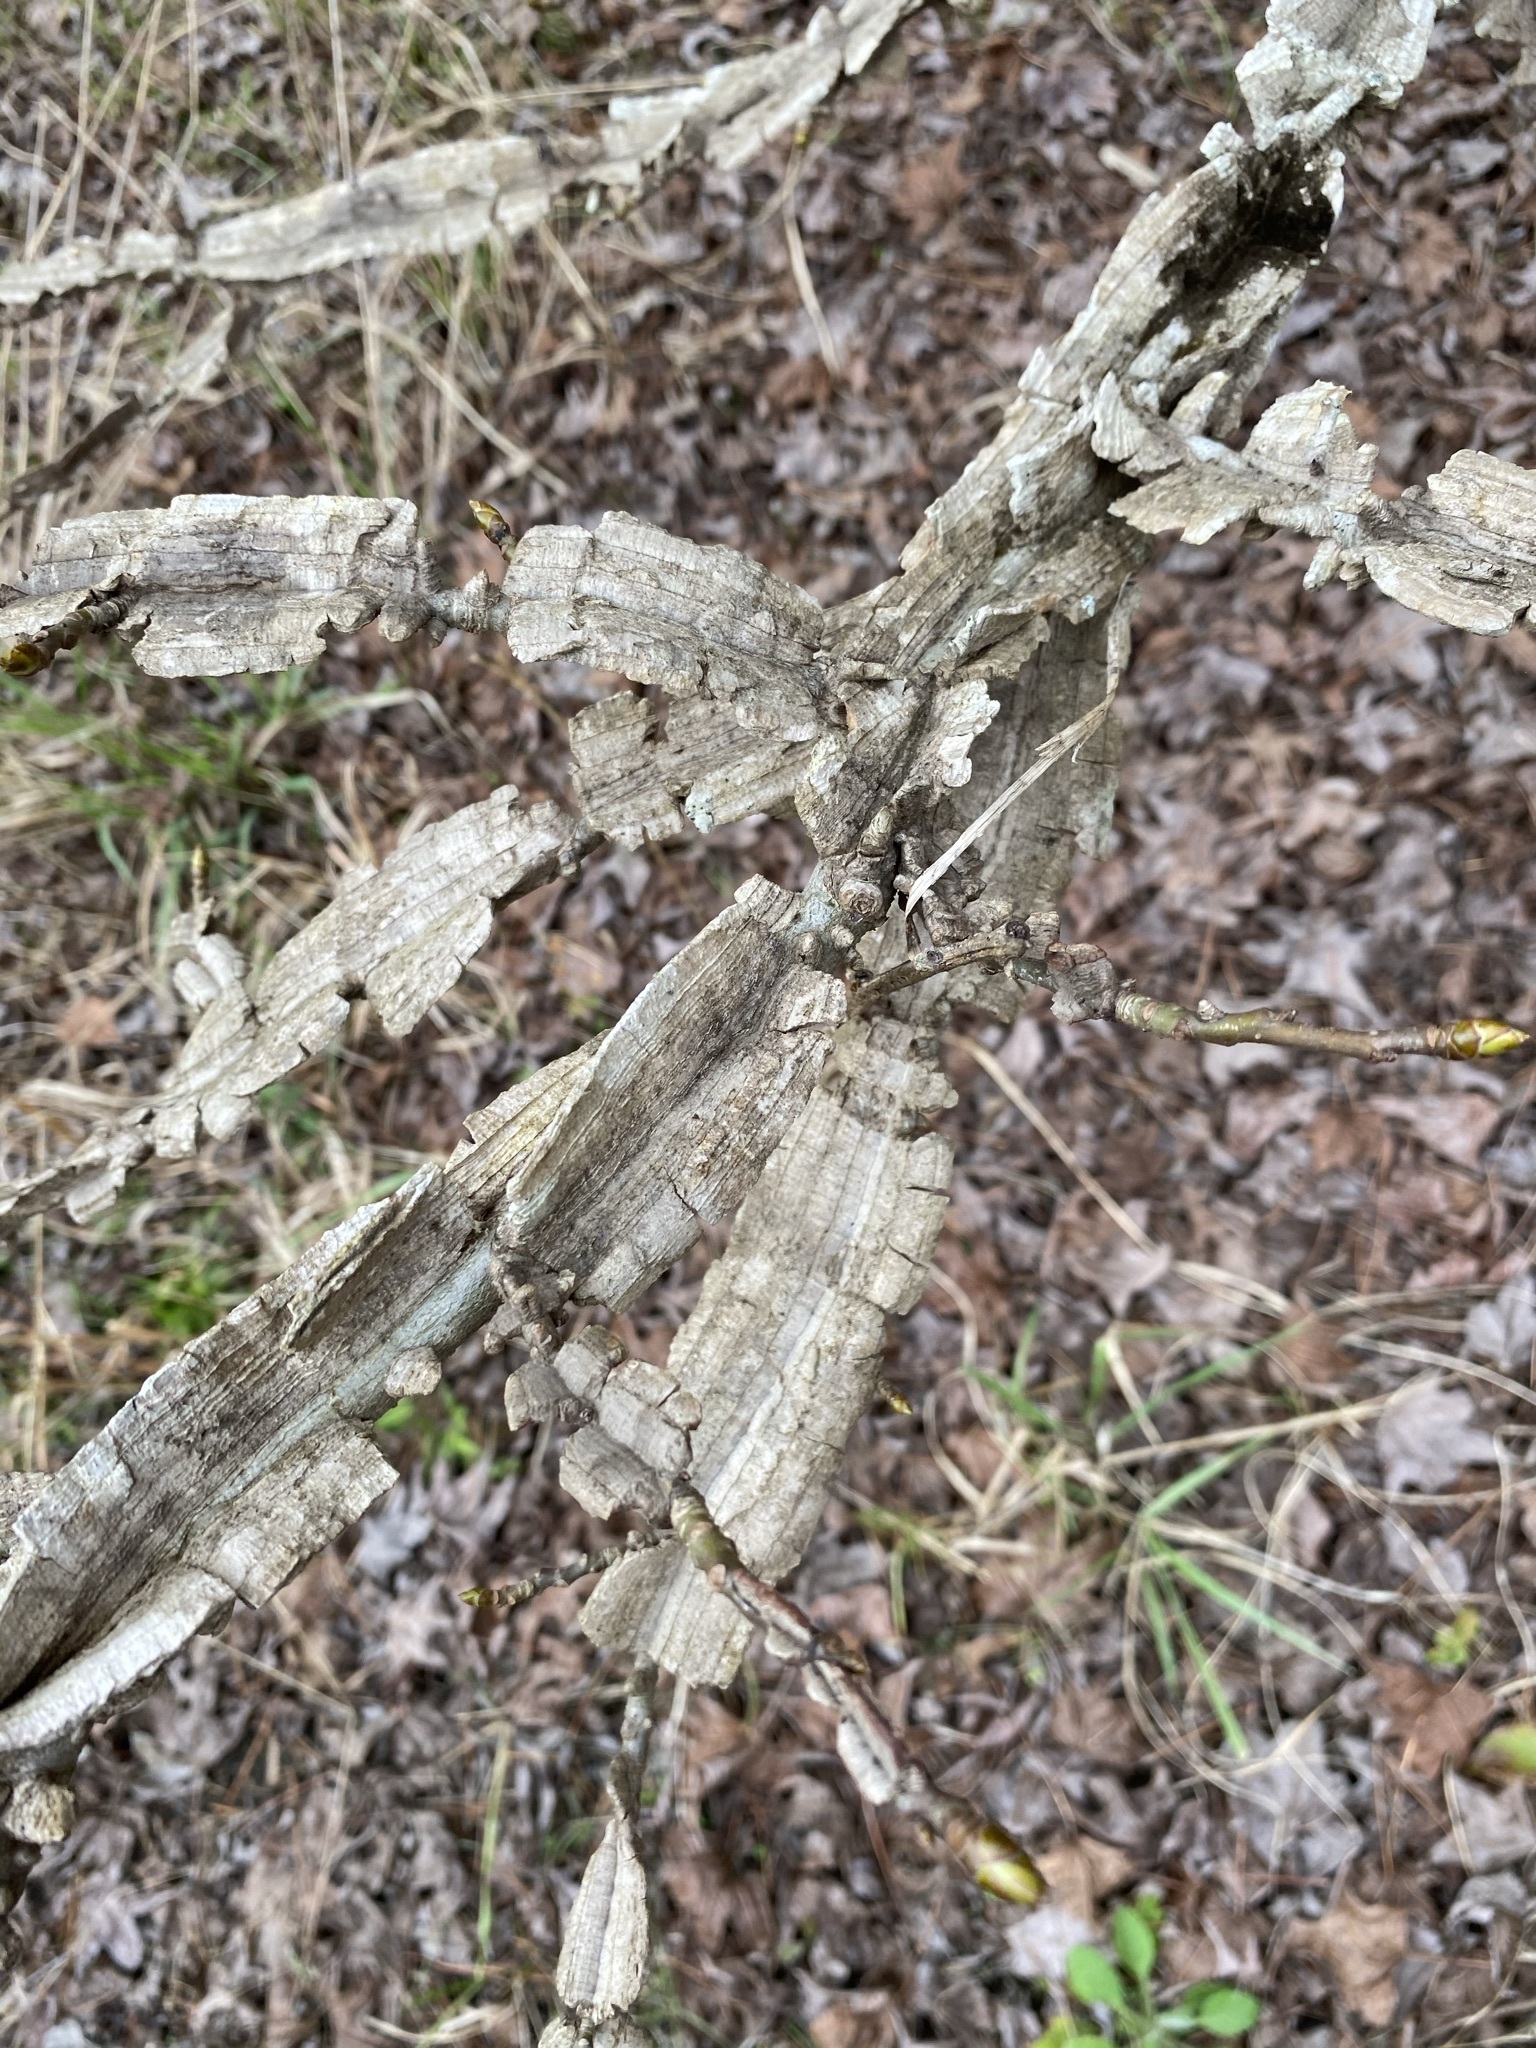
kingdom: Plantae
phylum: Tracheophyta
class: Magnoliopsida
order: Rosales
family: Ulmaceae
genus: Ulmus
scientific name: Ulmus alata
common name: Winged elm
